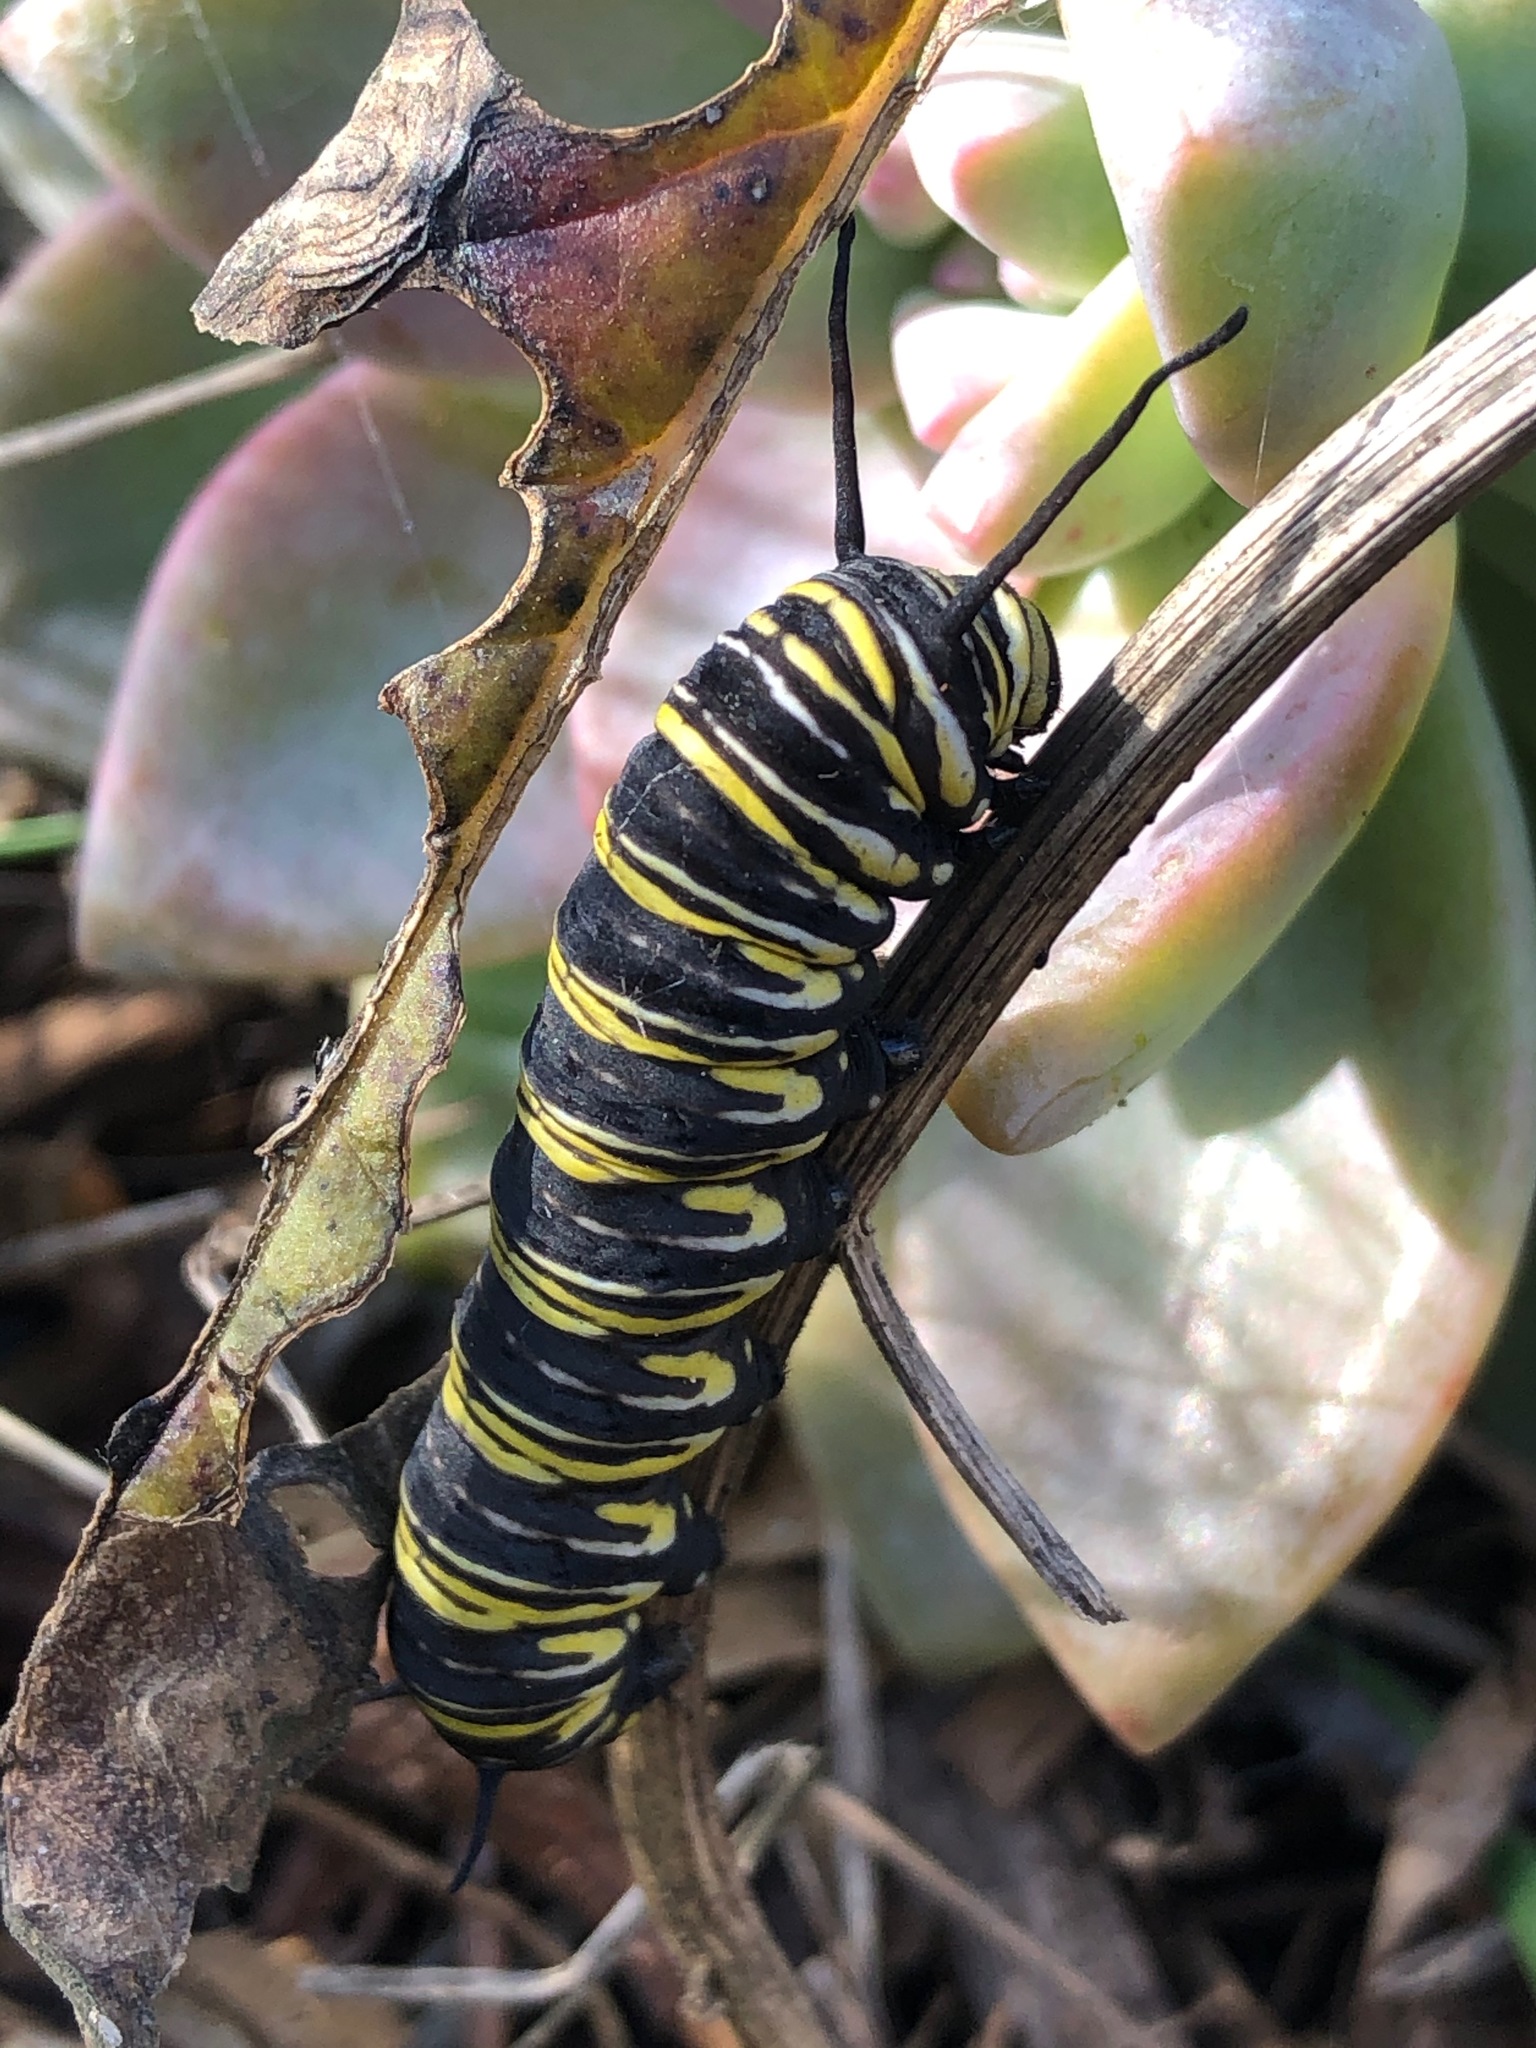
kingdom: Animalia
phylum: Arthropoda
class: Insecta
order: Lepidoptera
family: Nymphalidae
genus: Danaus
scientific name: Danaus plexippus
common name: Monarch
